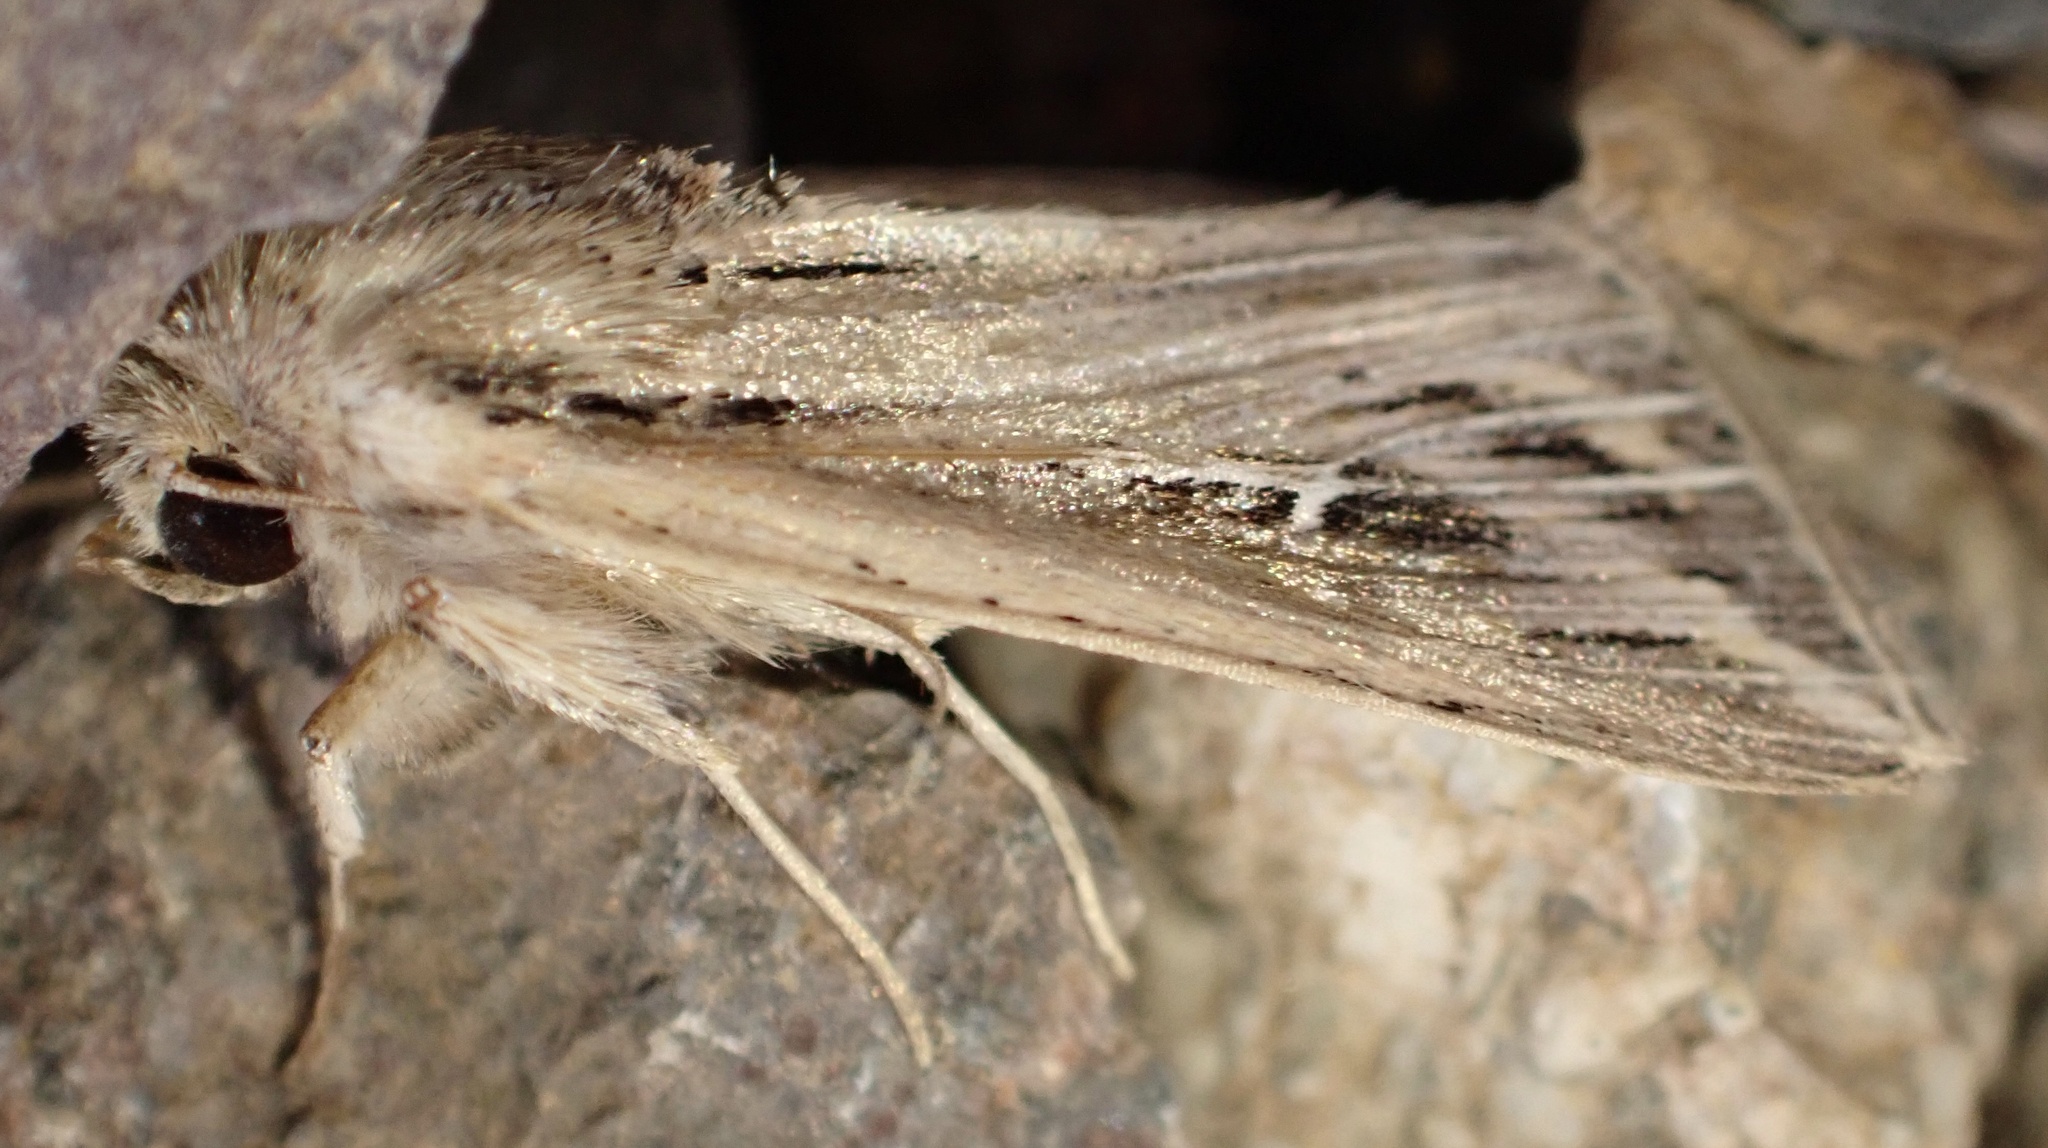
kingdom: Animalia
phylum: Arthropoda
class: Insecta
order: Lepidoptera
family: Noctuidae
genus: Mythimna
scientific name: Mythimna l-album
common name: L-album wainscot
